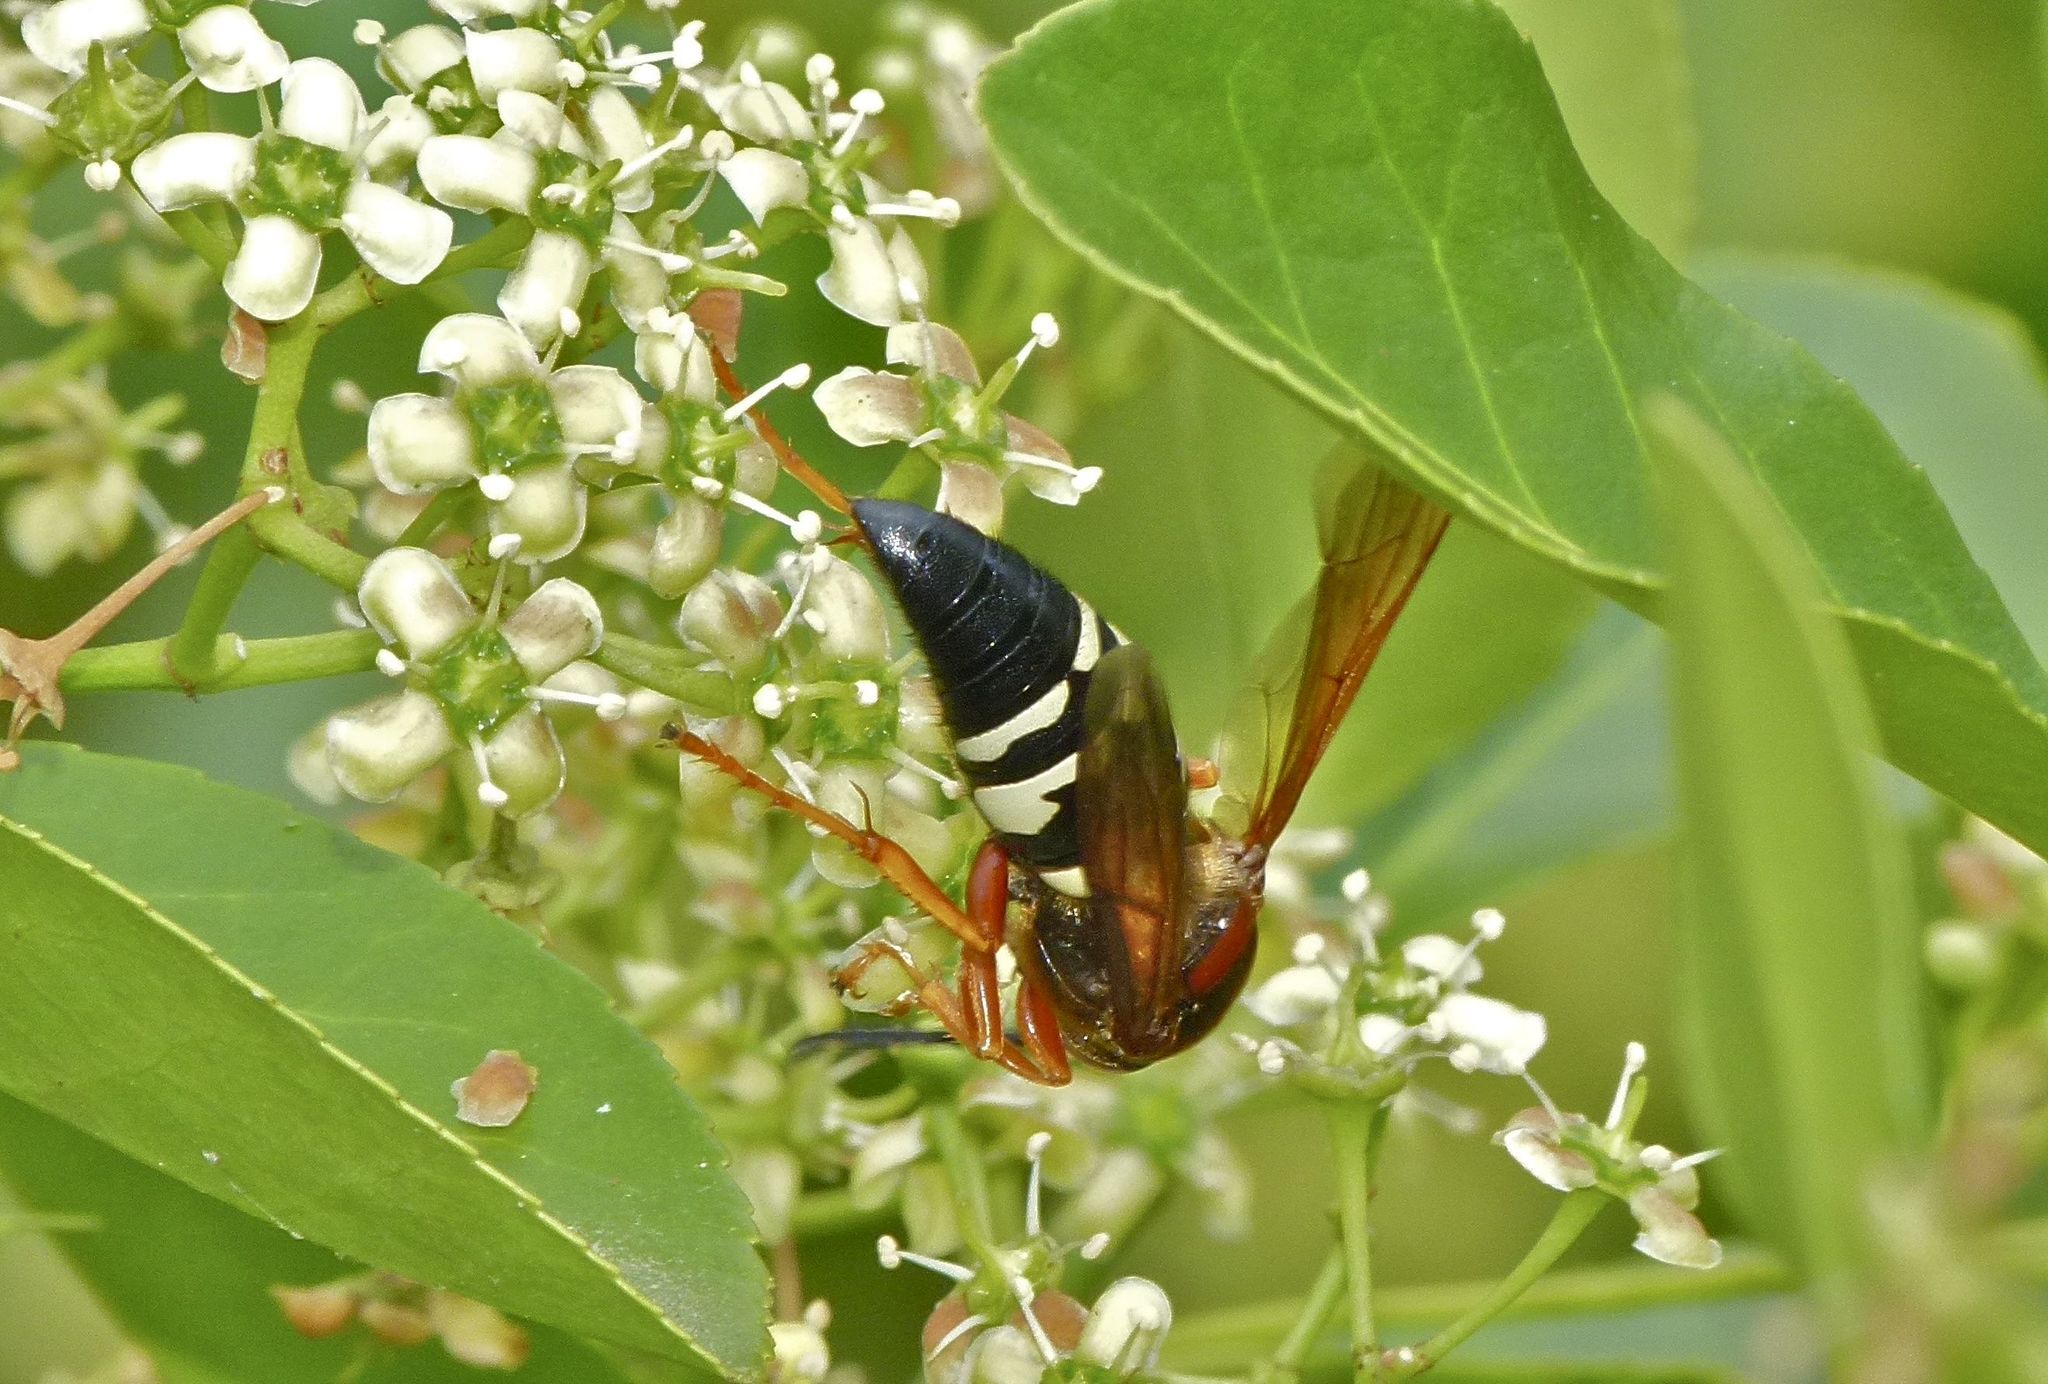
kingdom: Animalia
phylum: Arthropoda
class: Insecta
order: Hymenoptera
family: Crabronidae
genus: Sphecius
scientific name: Sphecius speciosus
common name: Cicada killer
